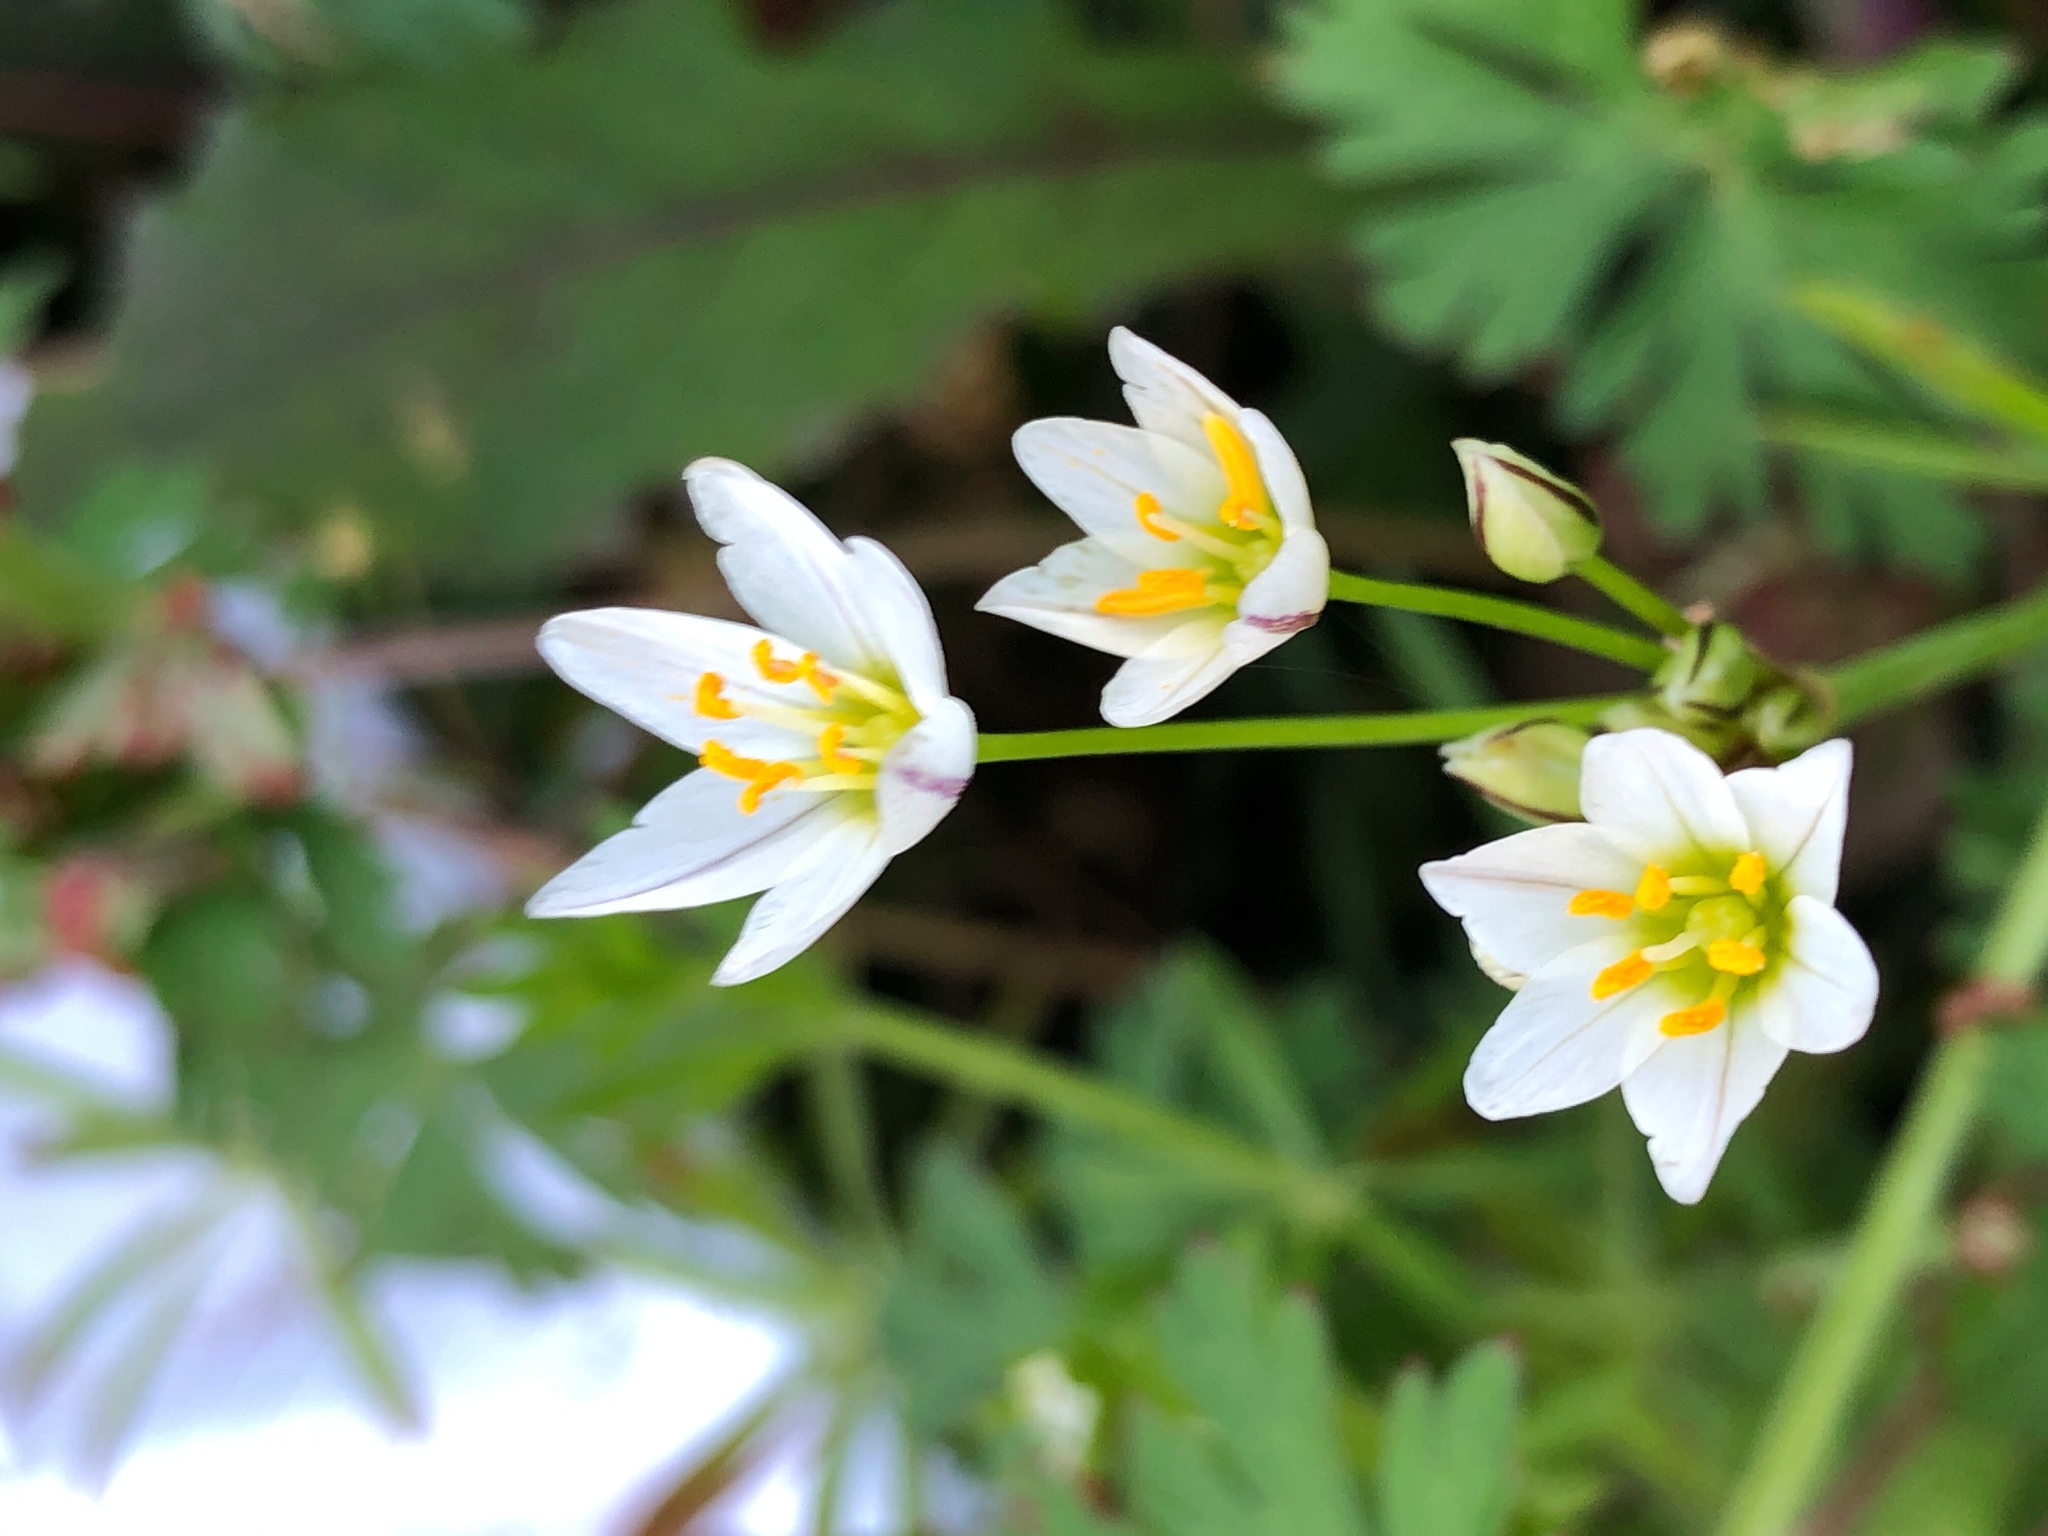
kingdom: Plantae
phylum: Tracheophyta
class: Liliopsida
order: Asparagales
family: Amaryllidaceae
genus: Nothoscordum
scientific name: Nothoscordum bivalve
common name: Crow-poison
